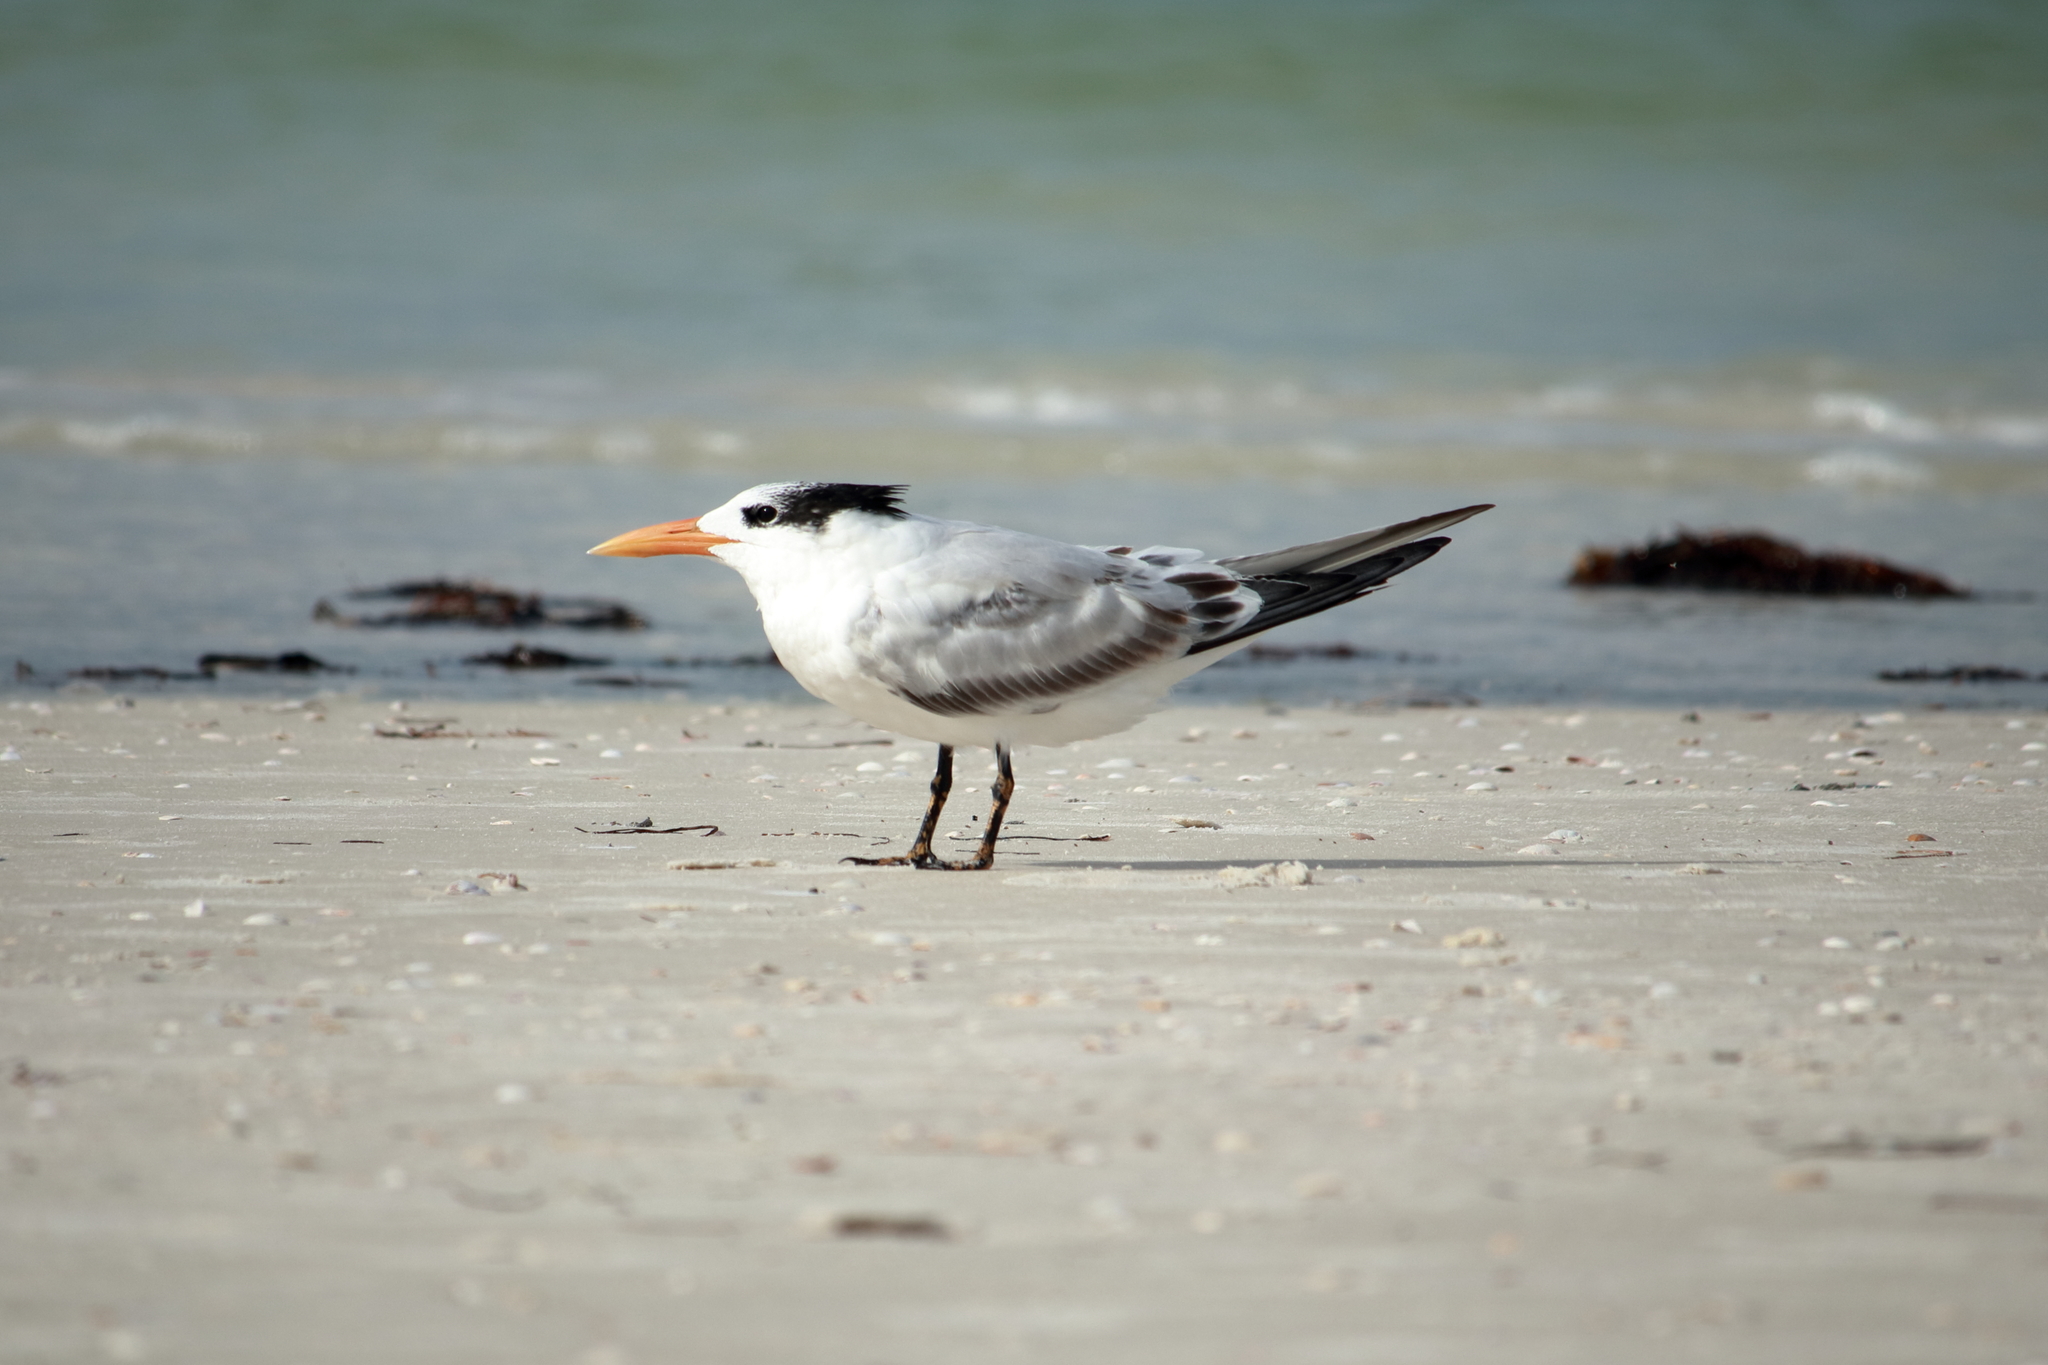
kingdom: Animalia
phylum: Chordata
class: Aves
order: Charadriiformes
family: Laridae
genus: Thalasseus
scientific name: Thalasseus maximus
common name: Royal tern
